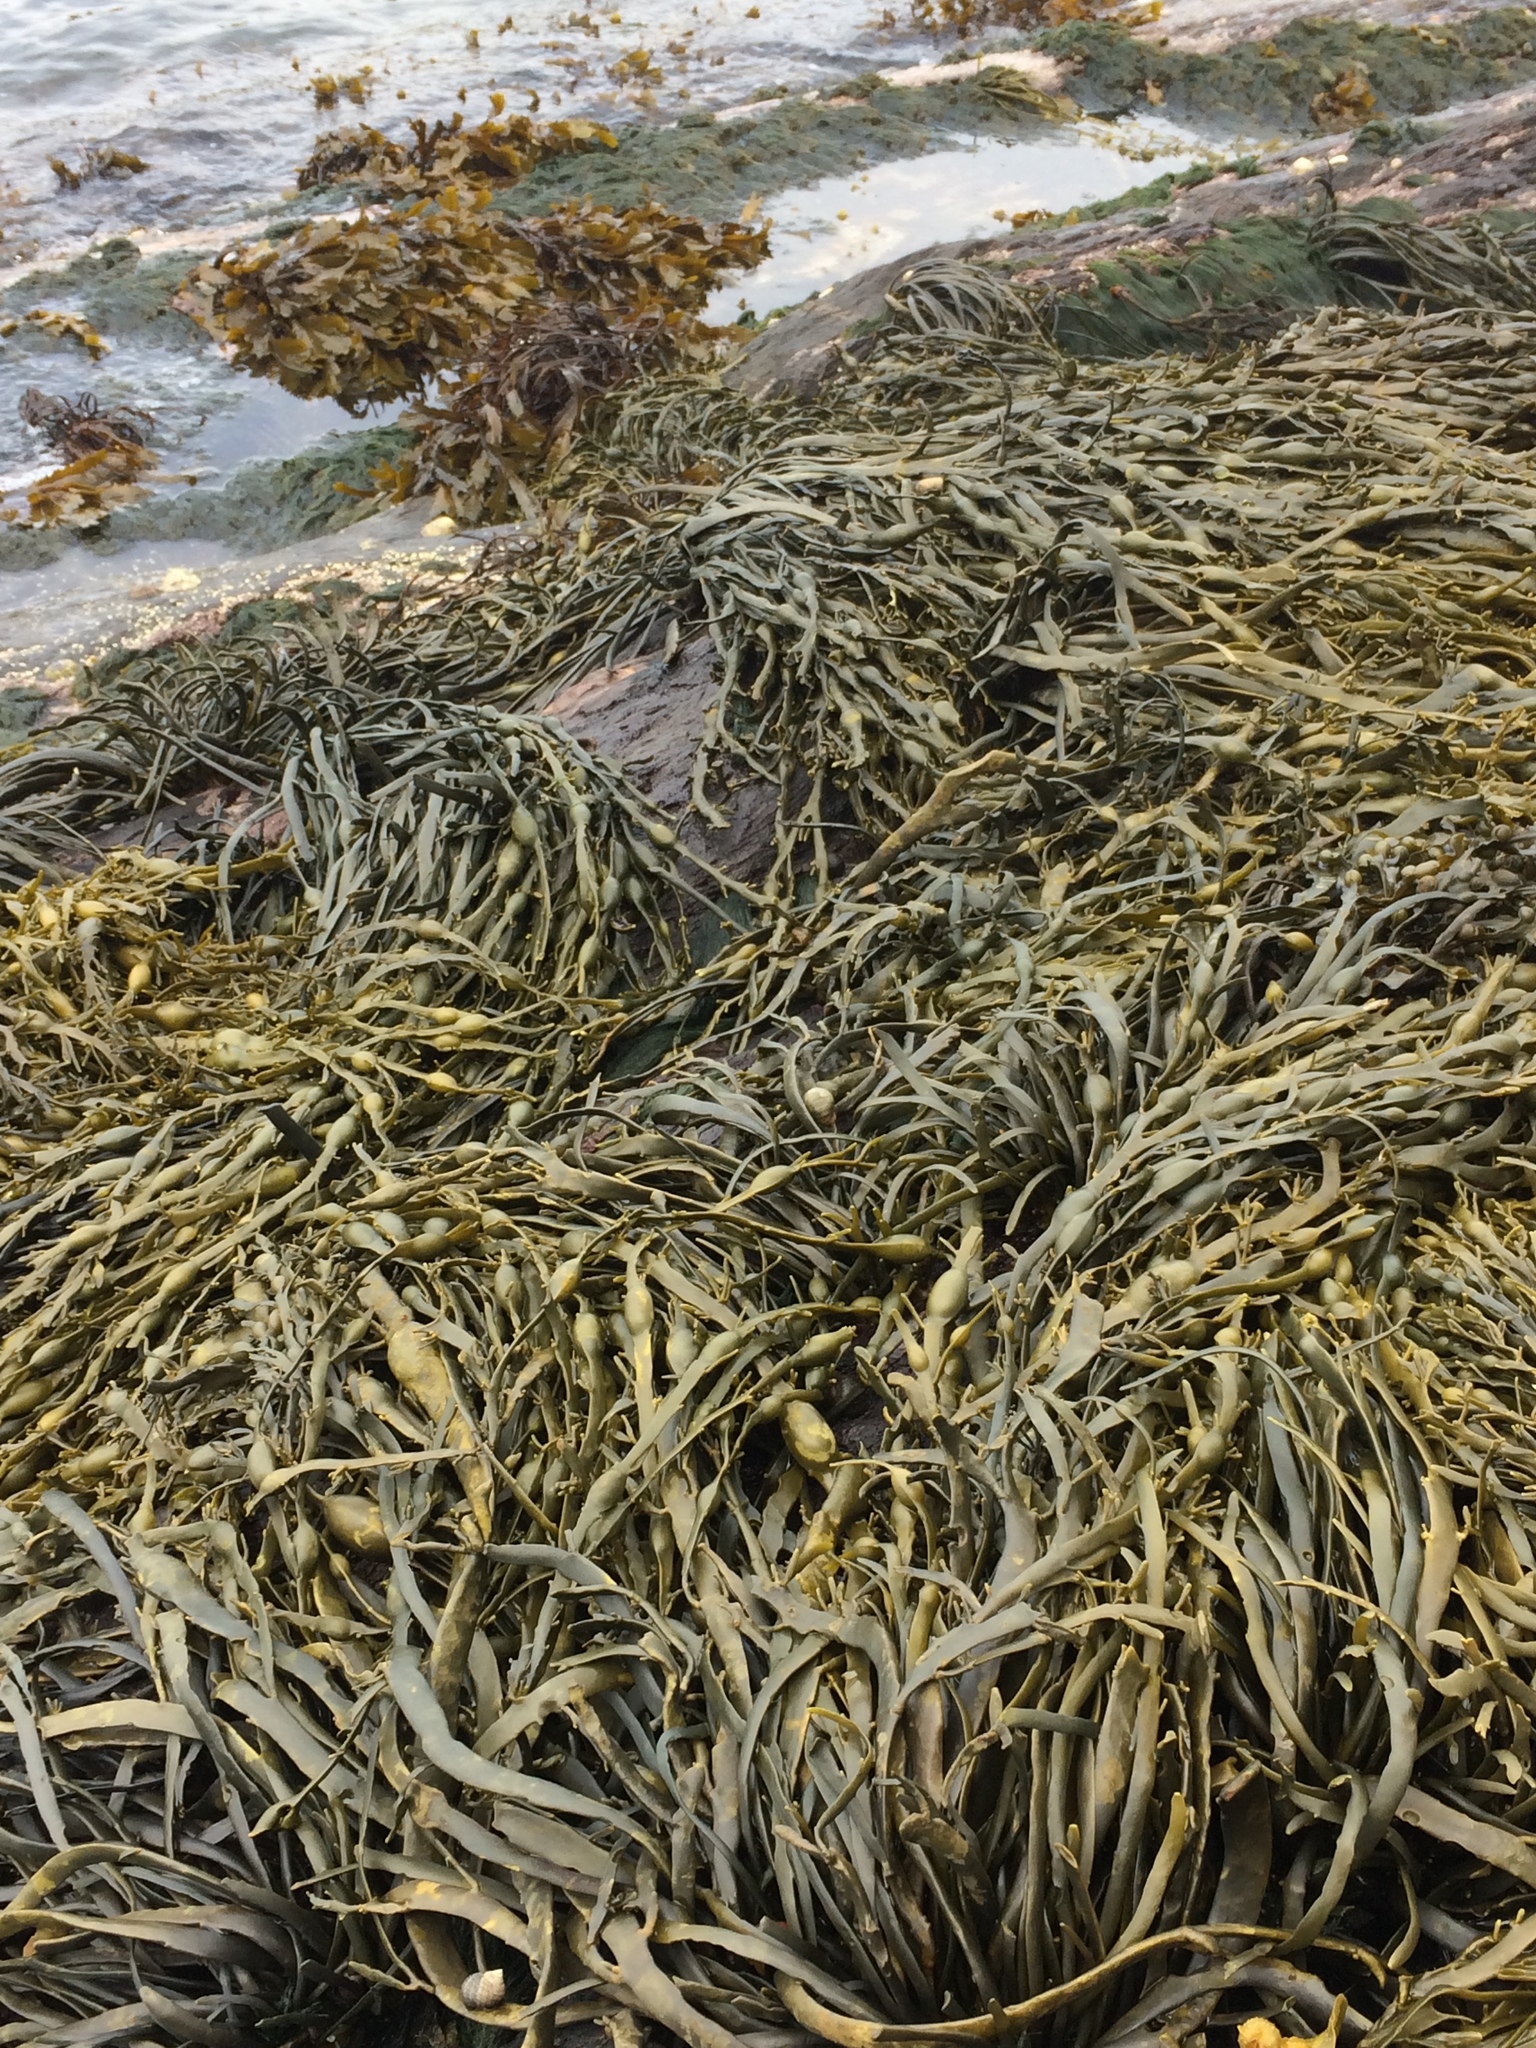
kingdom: Chromista
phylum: Ochrophyta
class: Phaeophyceae
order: Fucales
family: Fucaceae
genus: Ascophyllum
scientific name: Ascophyllum nodosum
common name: Knotted wrack
